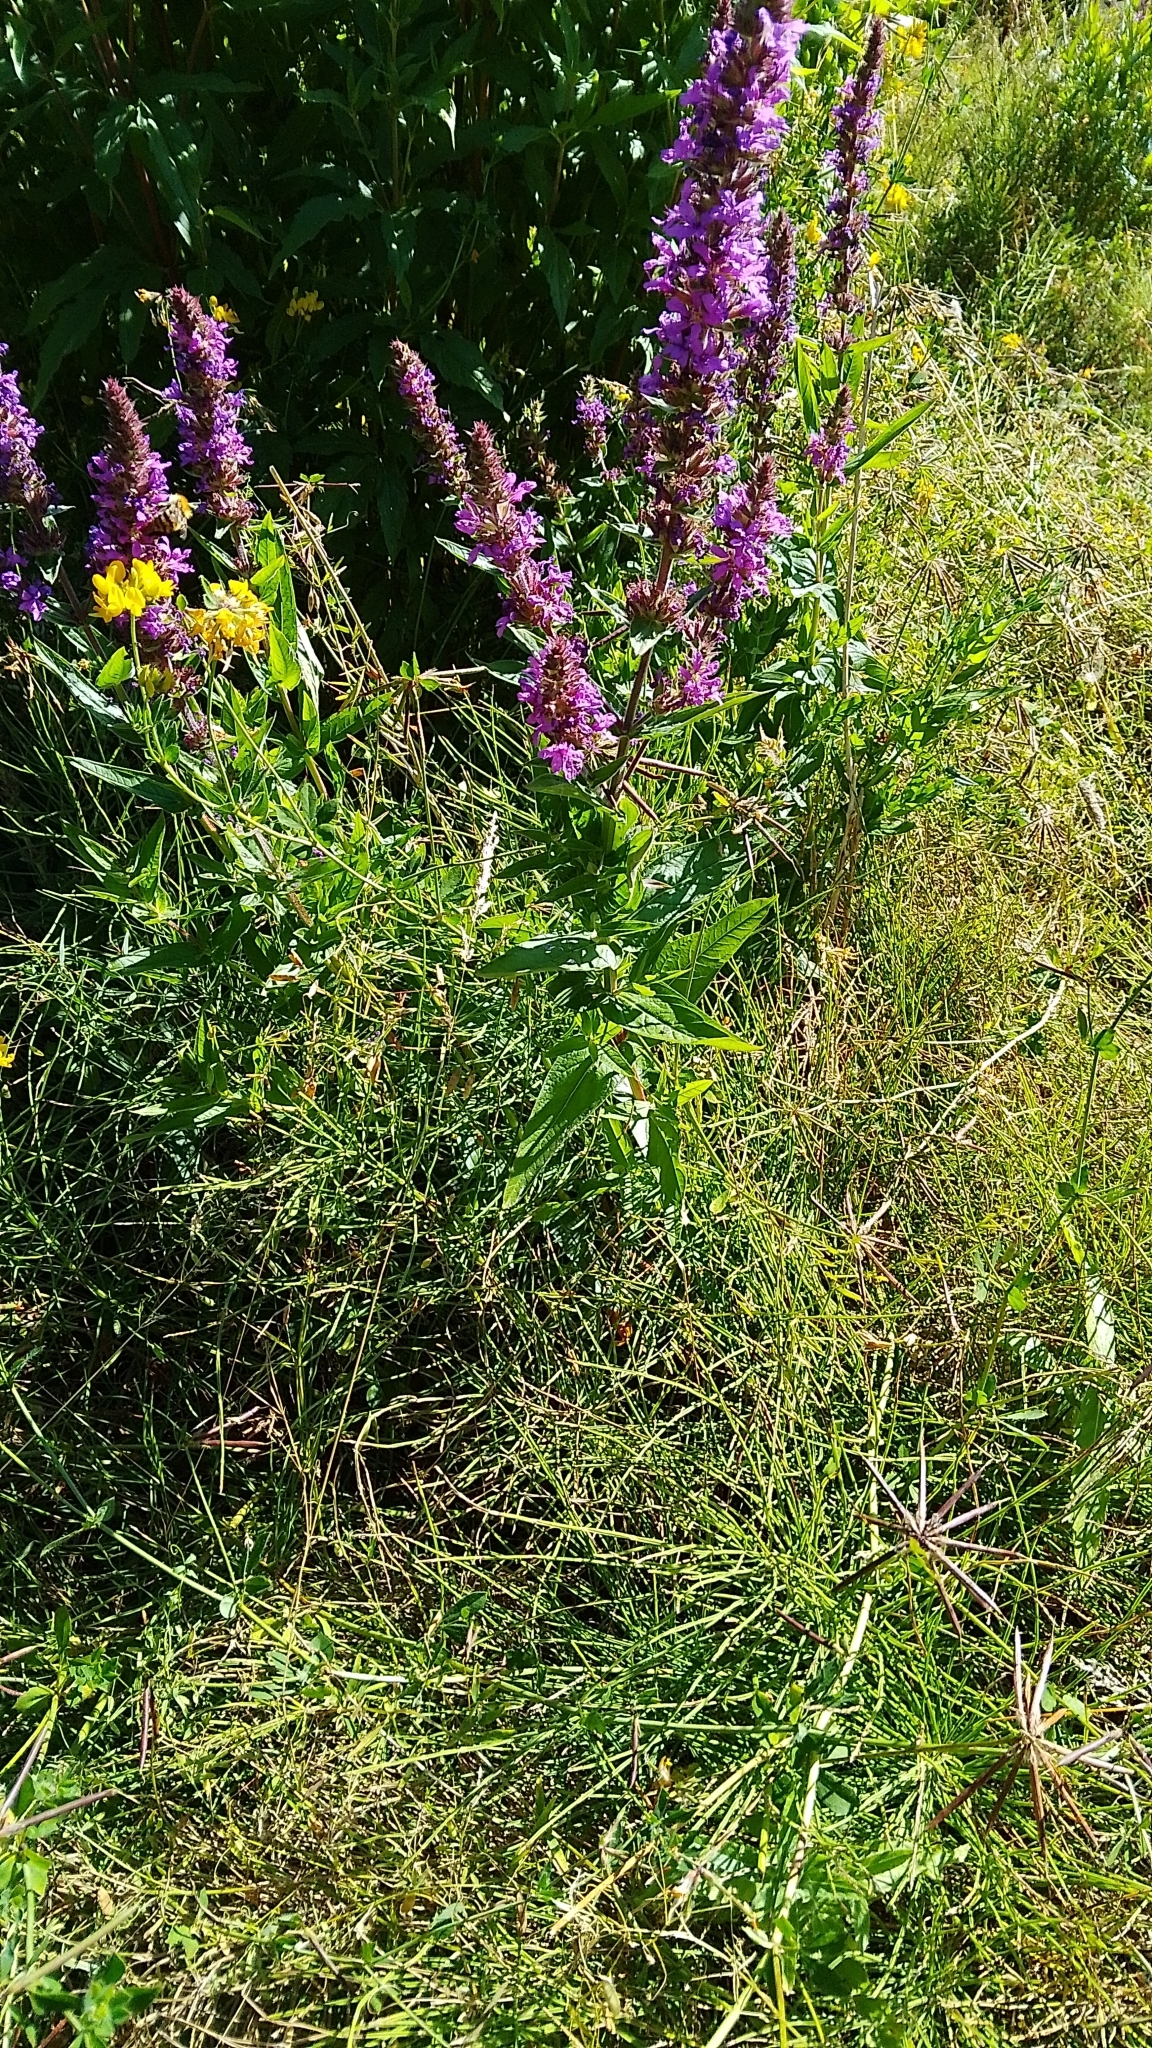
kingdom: Plantae
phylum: Tracheophyta
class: Magnoliopsida
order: Myrtales
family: Lythraceae
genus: Lythrum
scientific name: Lythrum salicaria
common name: Purple loosestrife
